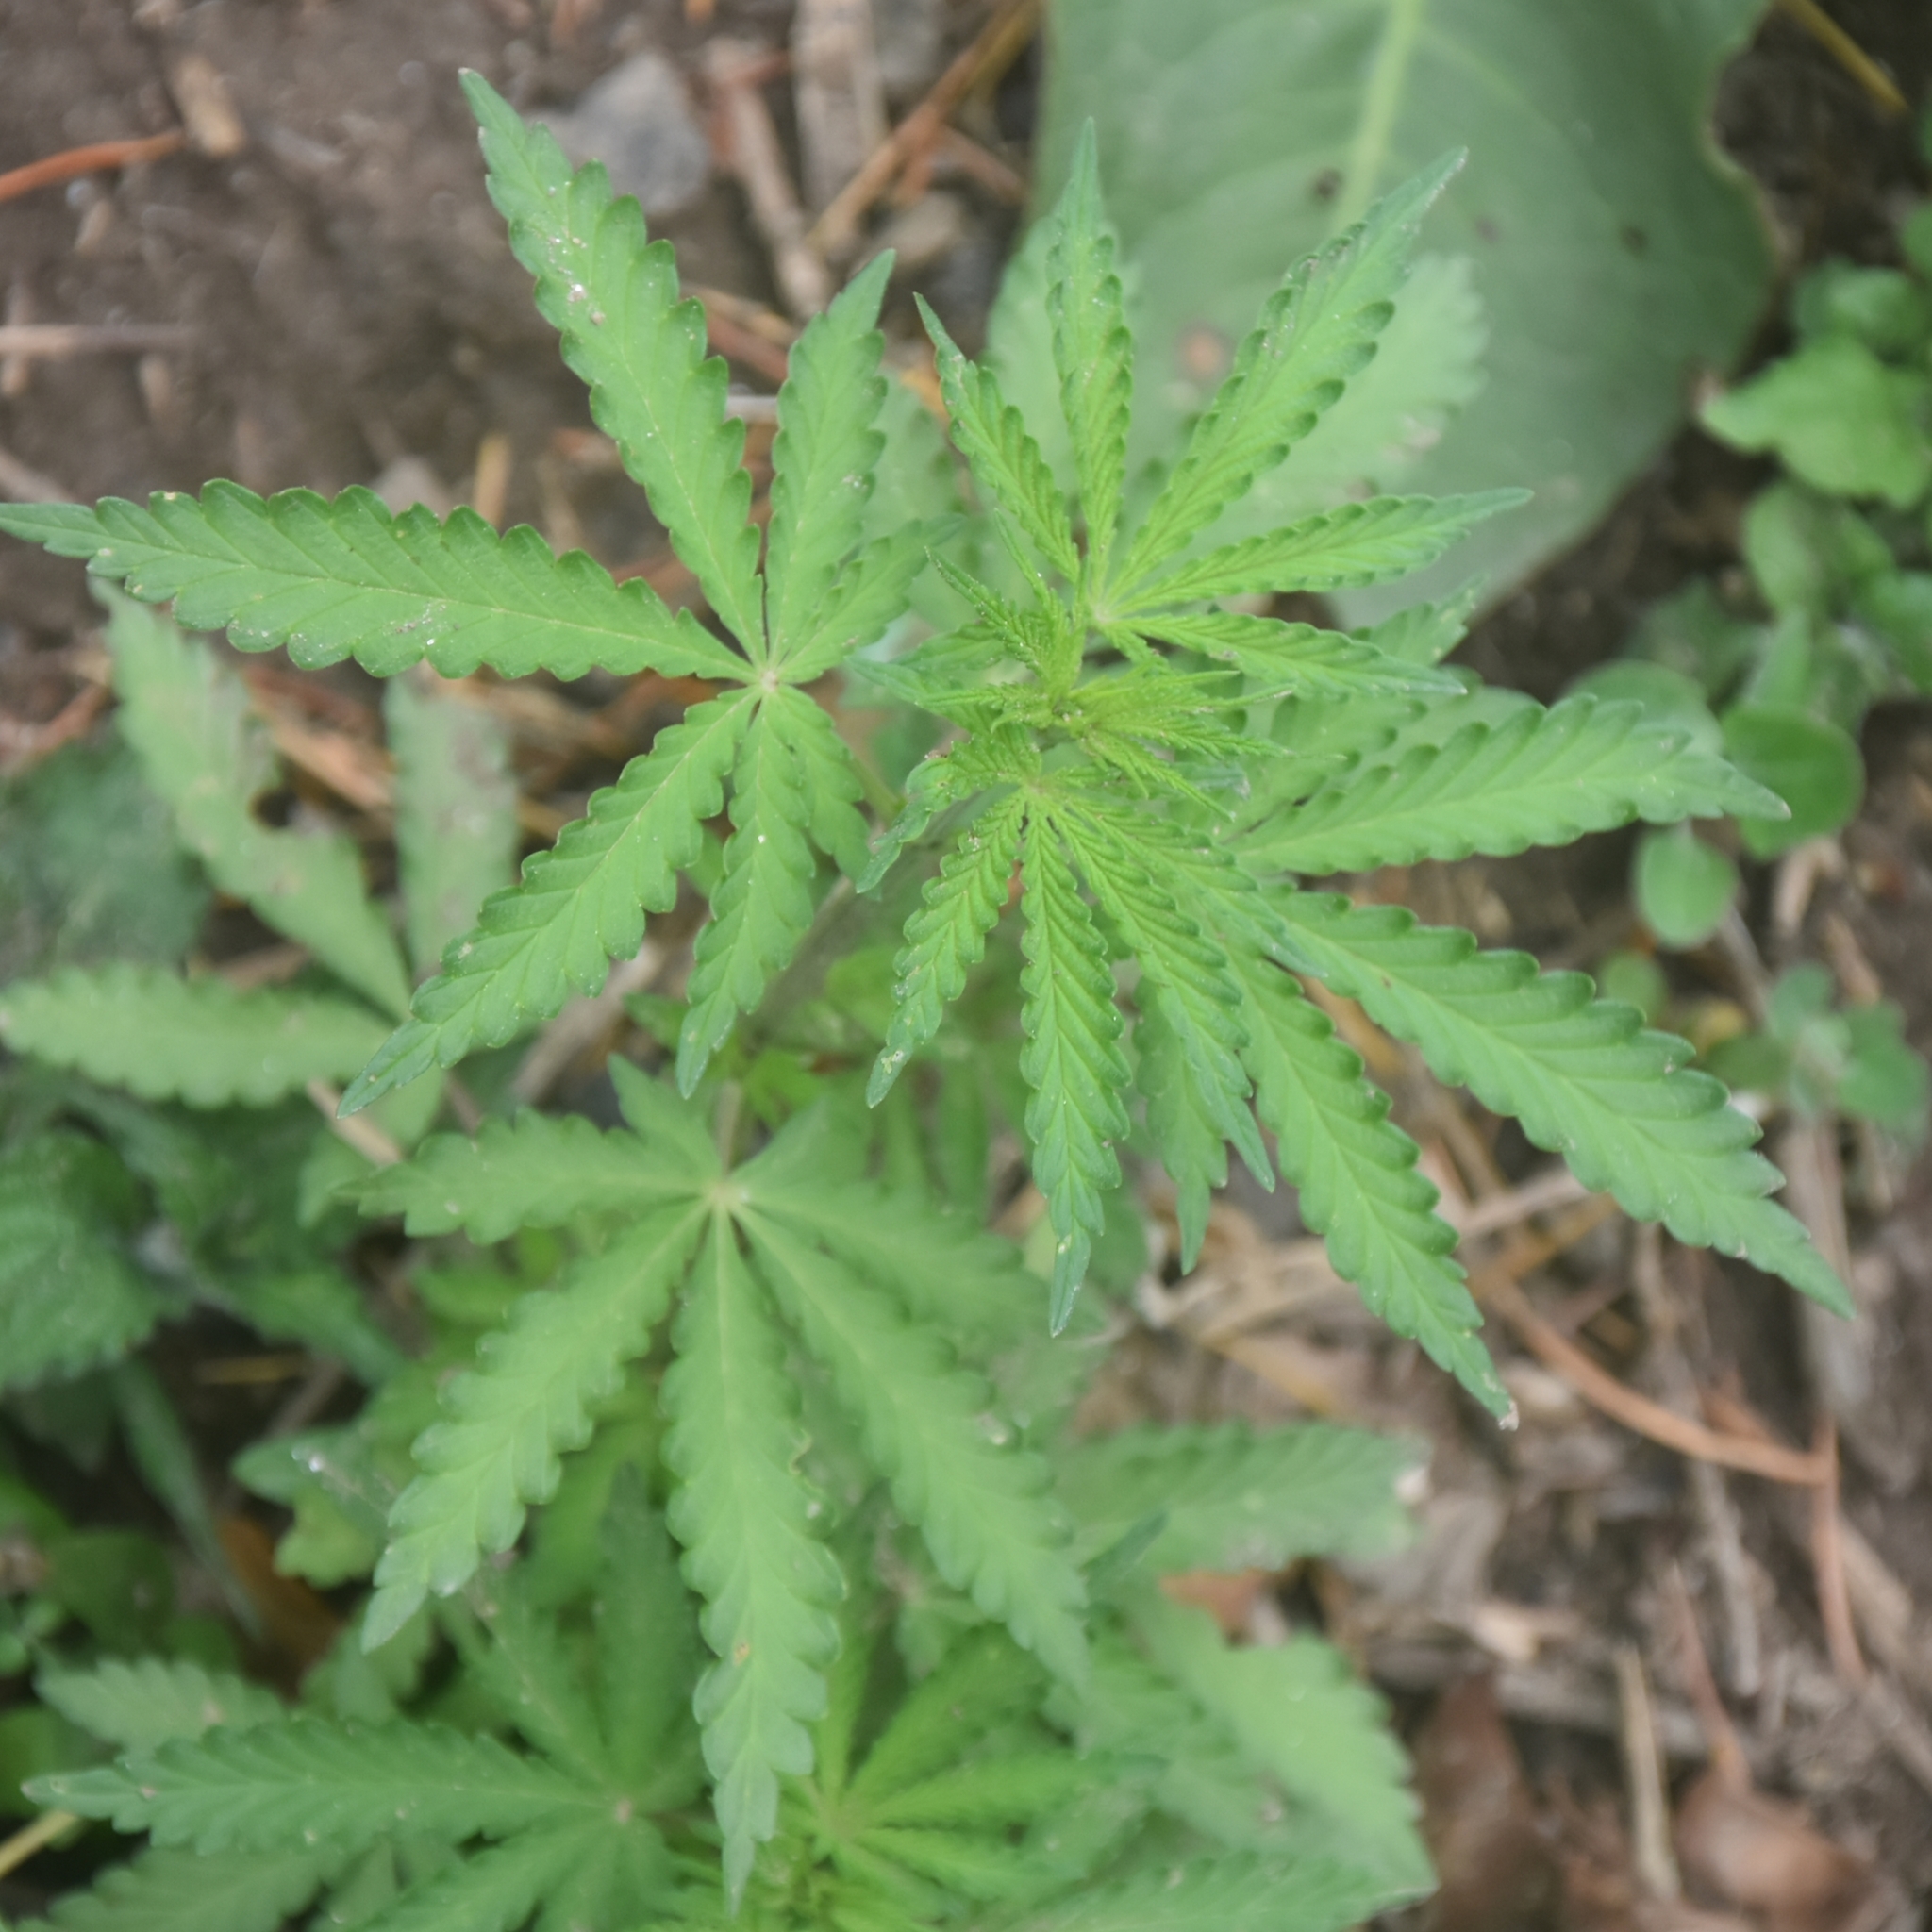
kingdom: Plantae
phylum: Tracheophyta
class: Magnoliopsida
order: Rosales
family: Cannabaceae
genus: Cannabis
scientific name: Cannabis sativa
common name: Hemp
